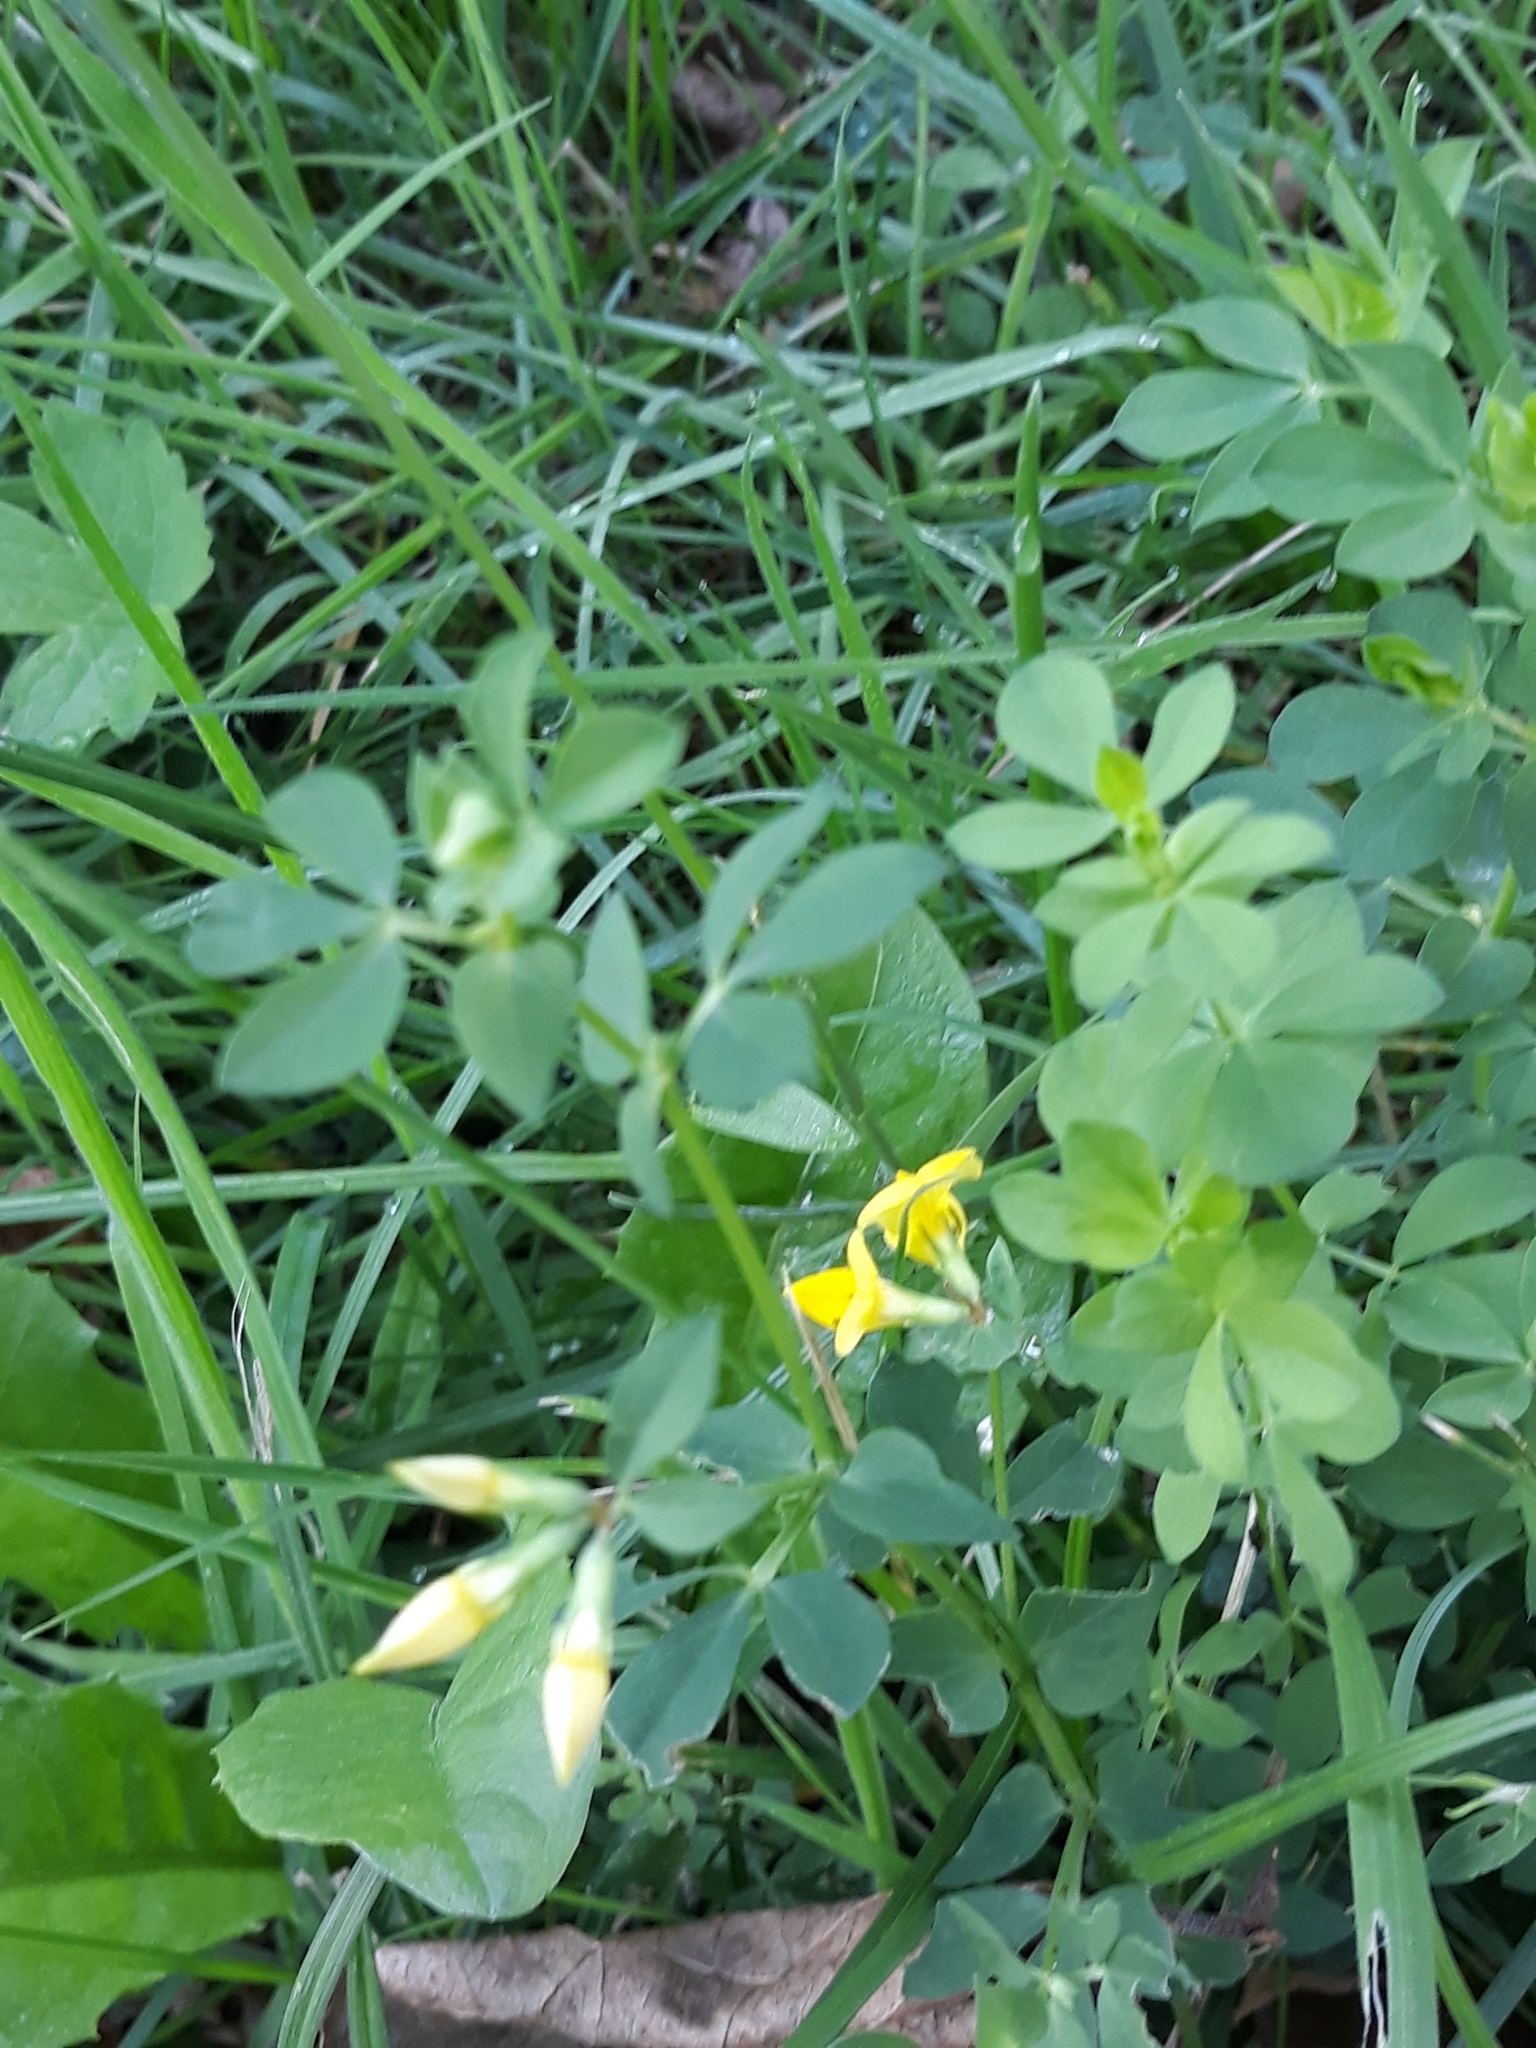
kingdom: Plantae
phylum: Tracheophyta
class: Magnoliopsida
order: Fabales
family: Fabaceae
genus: Lotus
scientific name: Lotus corniculatus
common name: Common bird's-foot-trefoil
